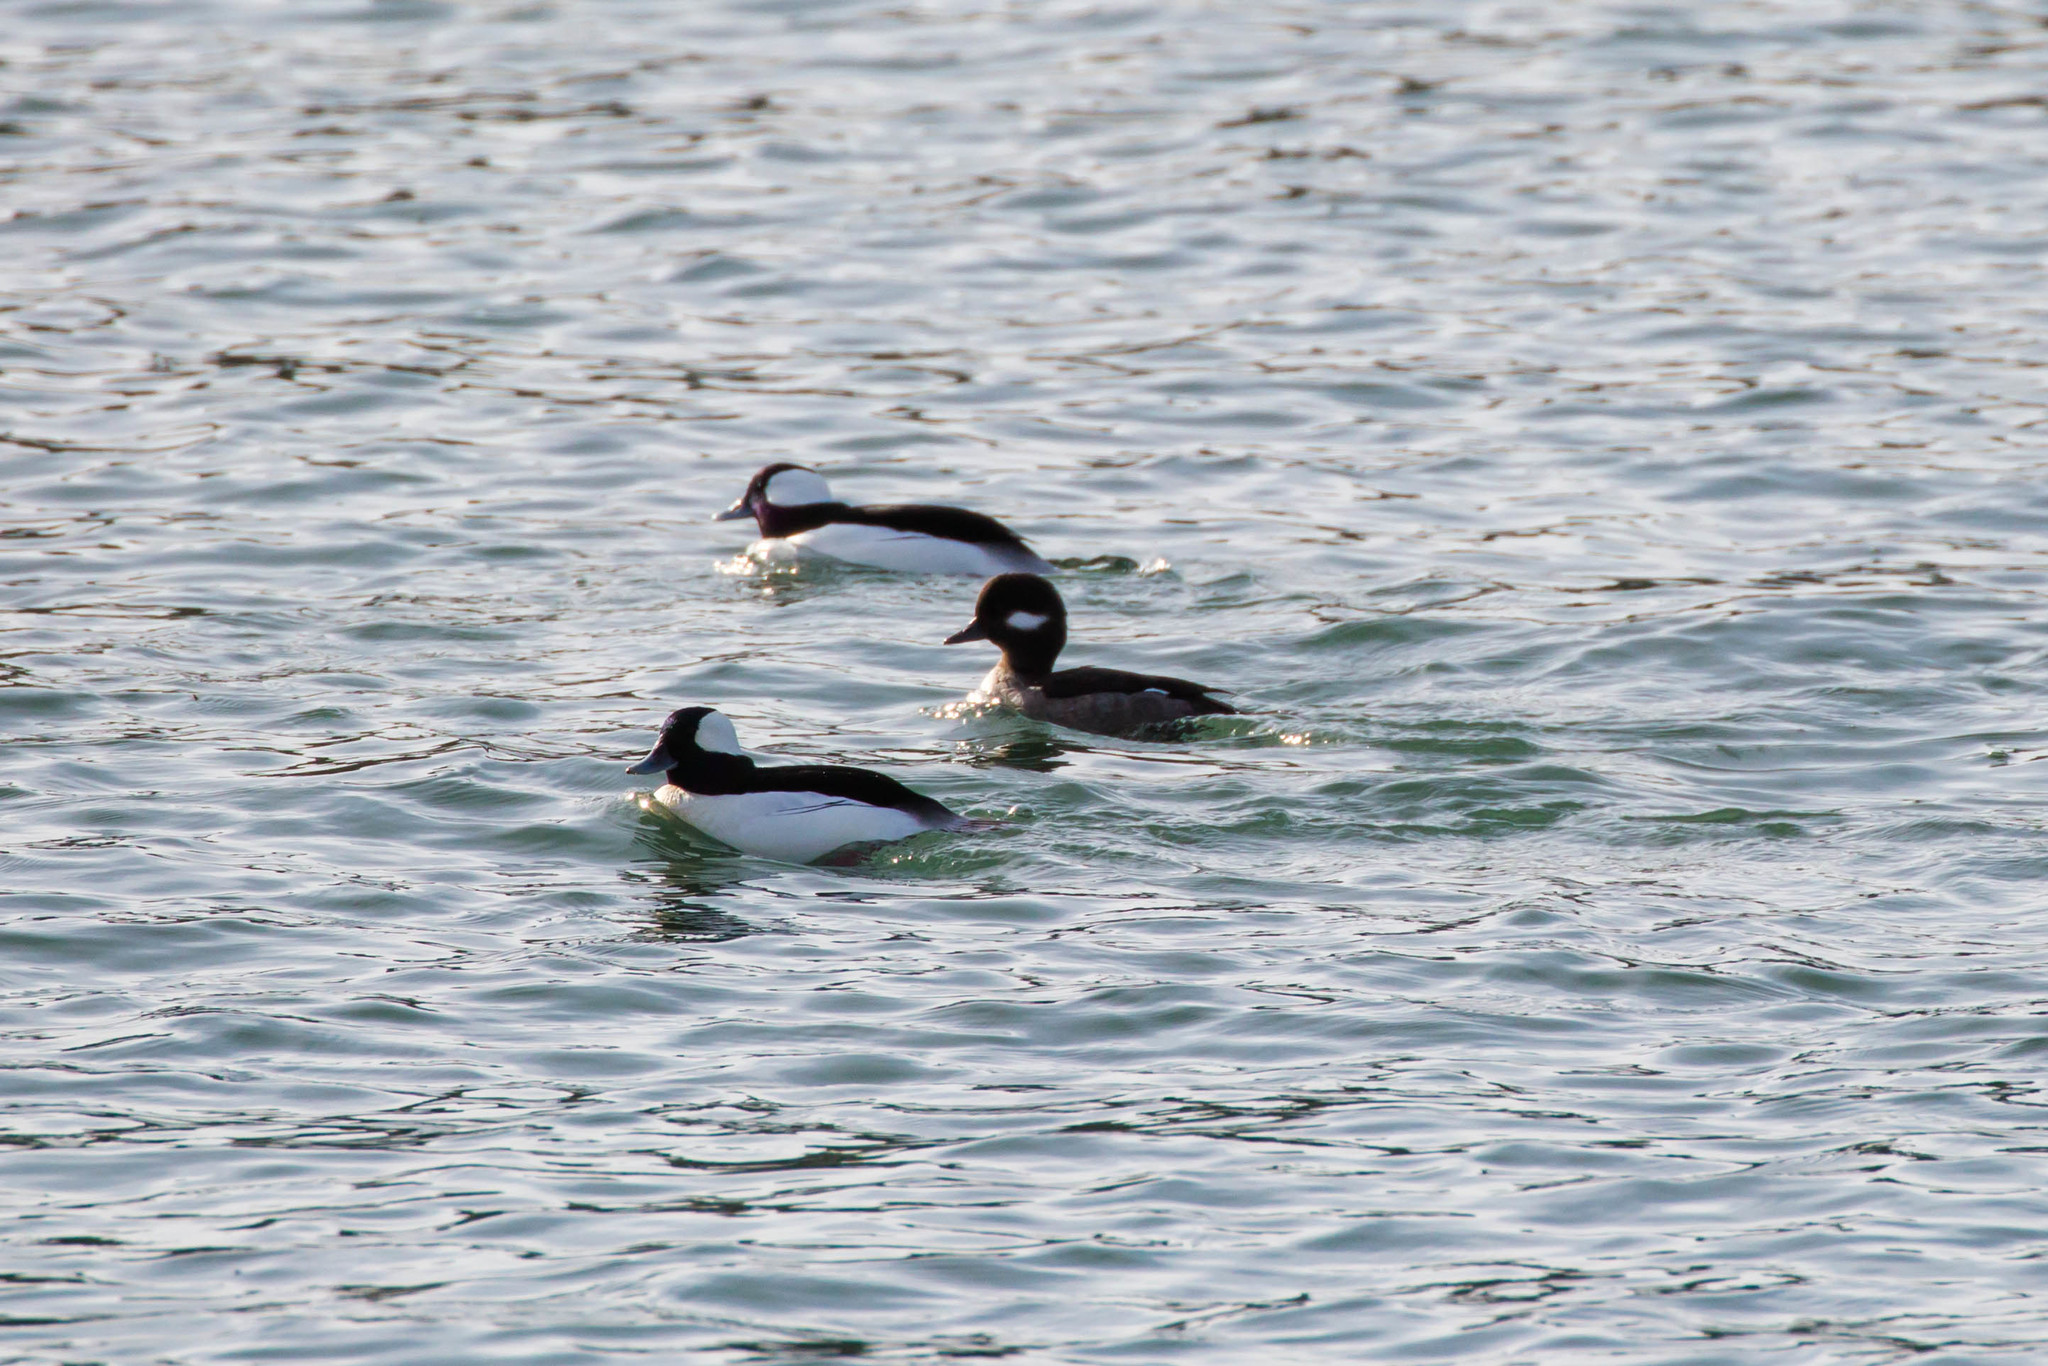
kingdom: Animalia
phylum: Chordata
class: Aves
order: Anseriformes
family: Anatidae
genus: Bucephala
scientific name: Bucephala albeola
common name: Bufflehead
